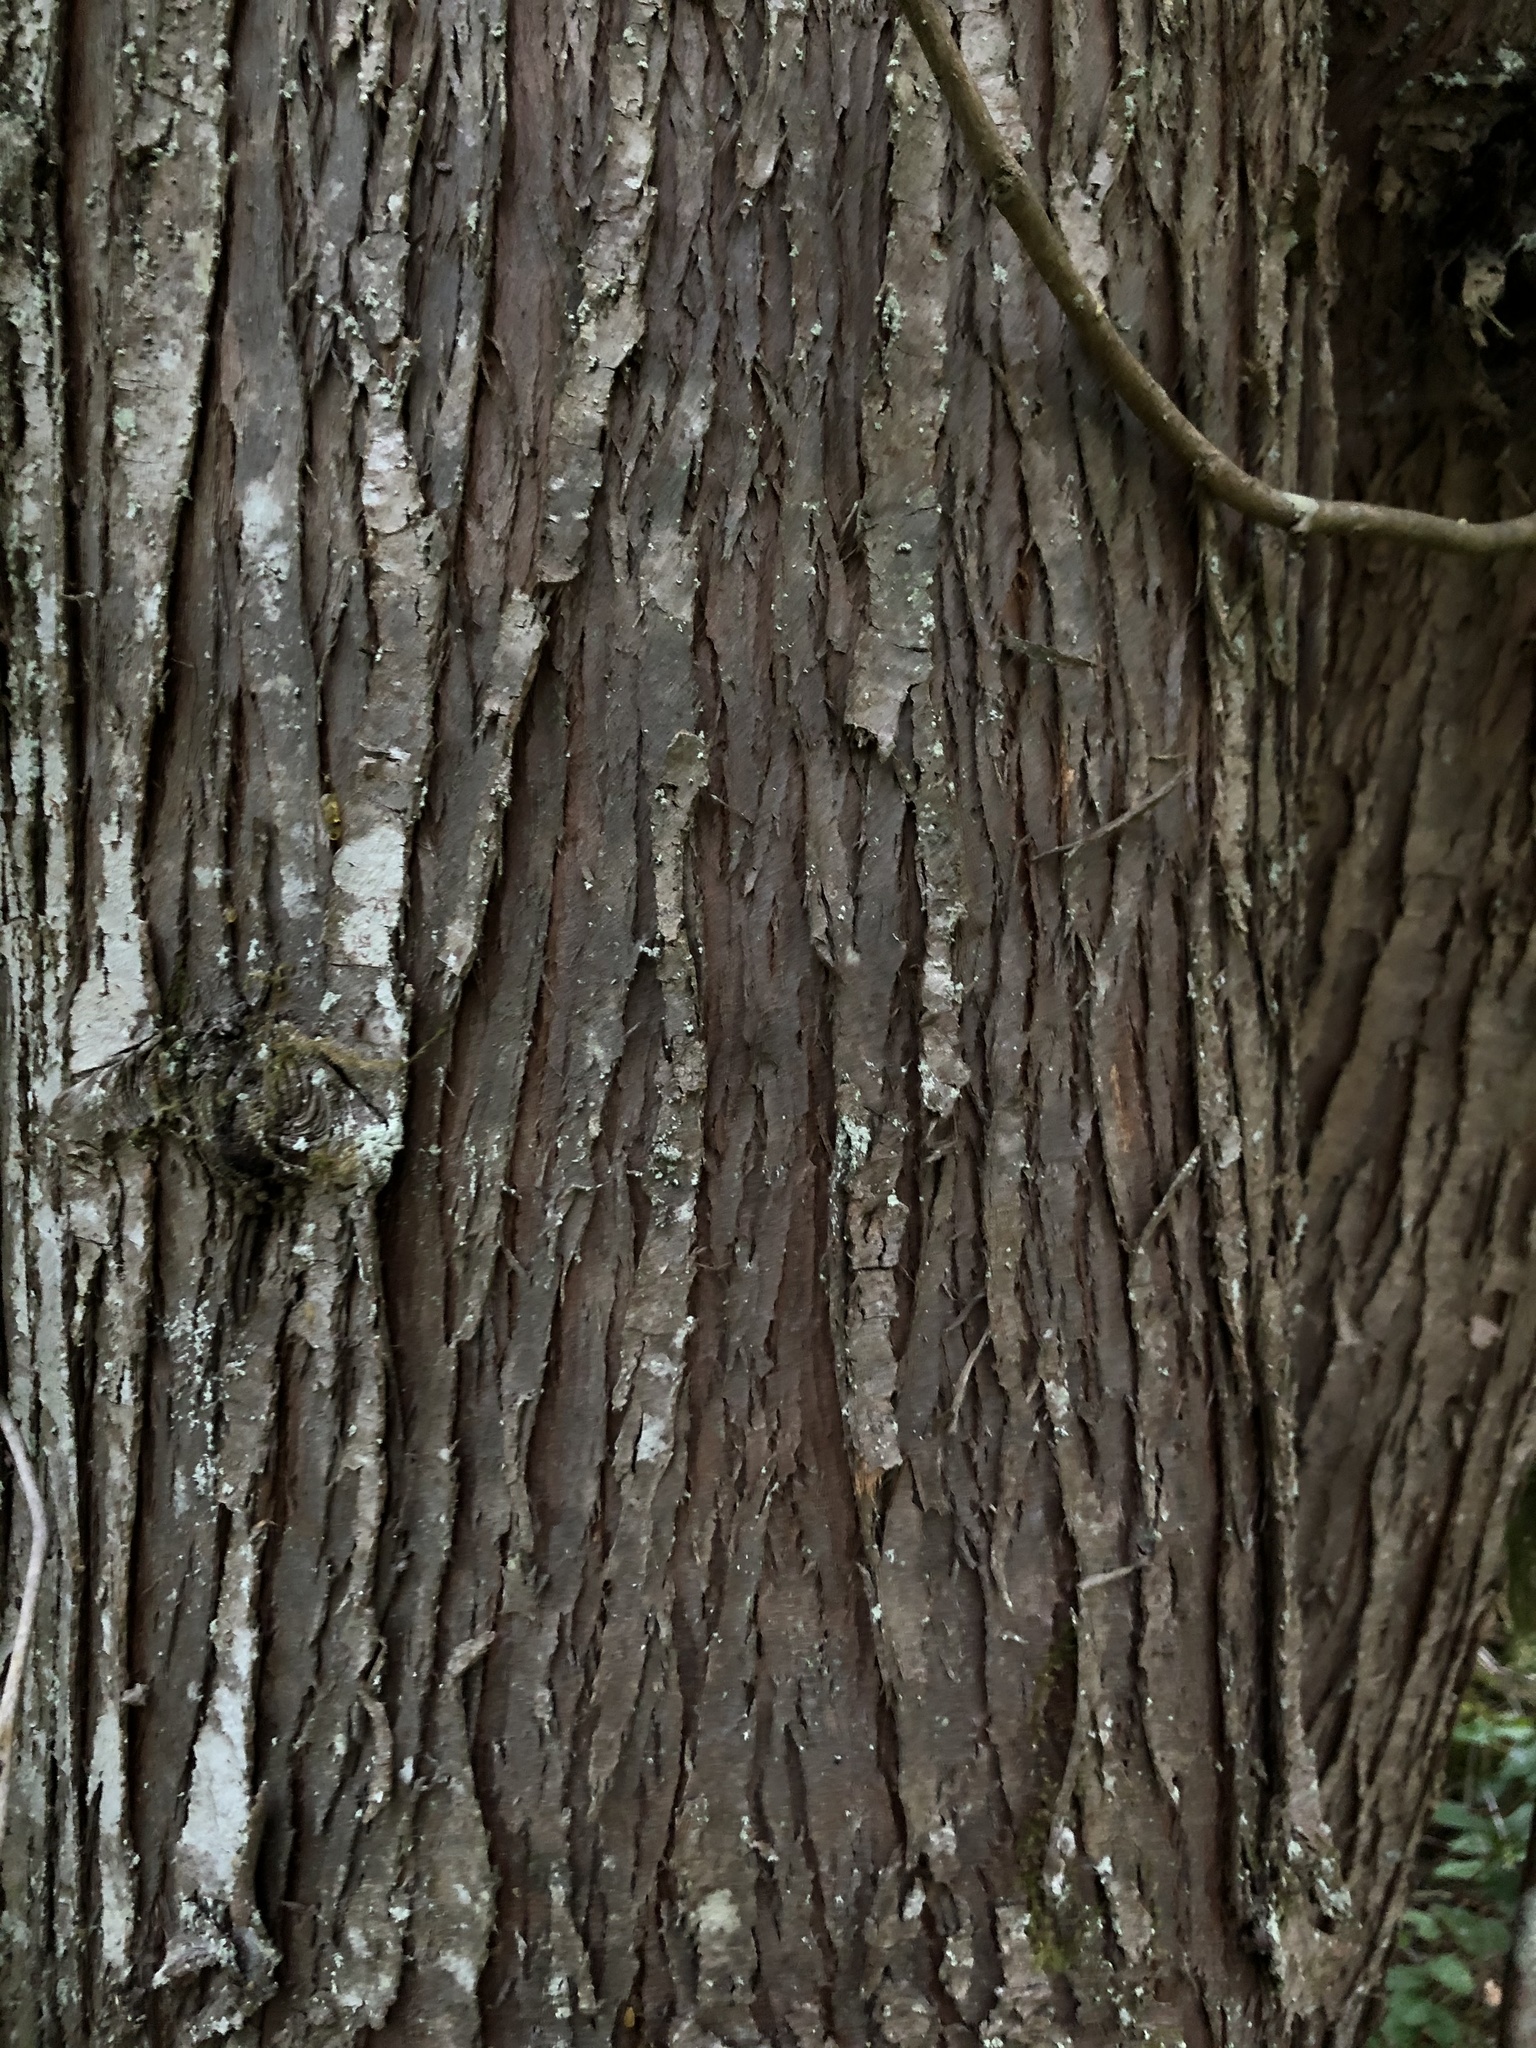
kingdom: Plantae
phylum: Tracheophyta
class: Pinopsida
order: Pinales
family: Cupressaceae
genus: Thuja
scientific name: Thuja plicata
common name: Western red-cedar
